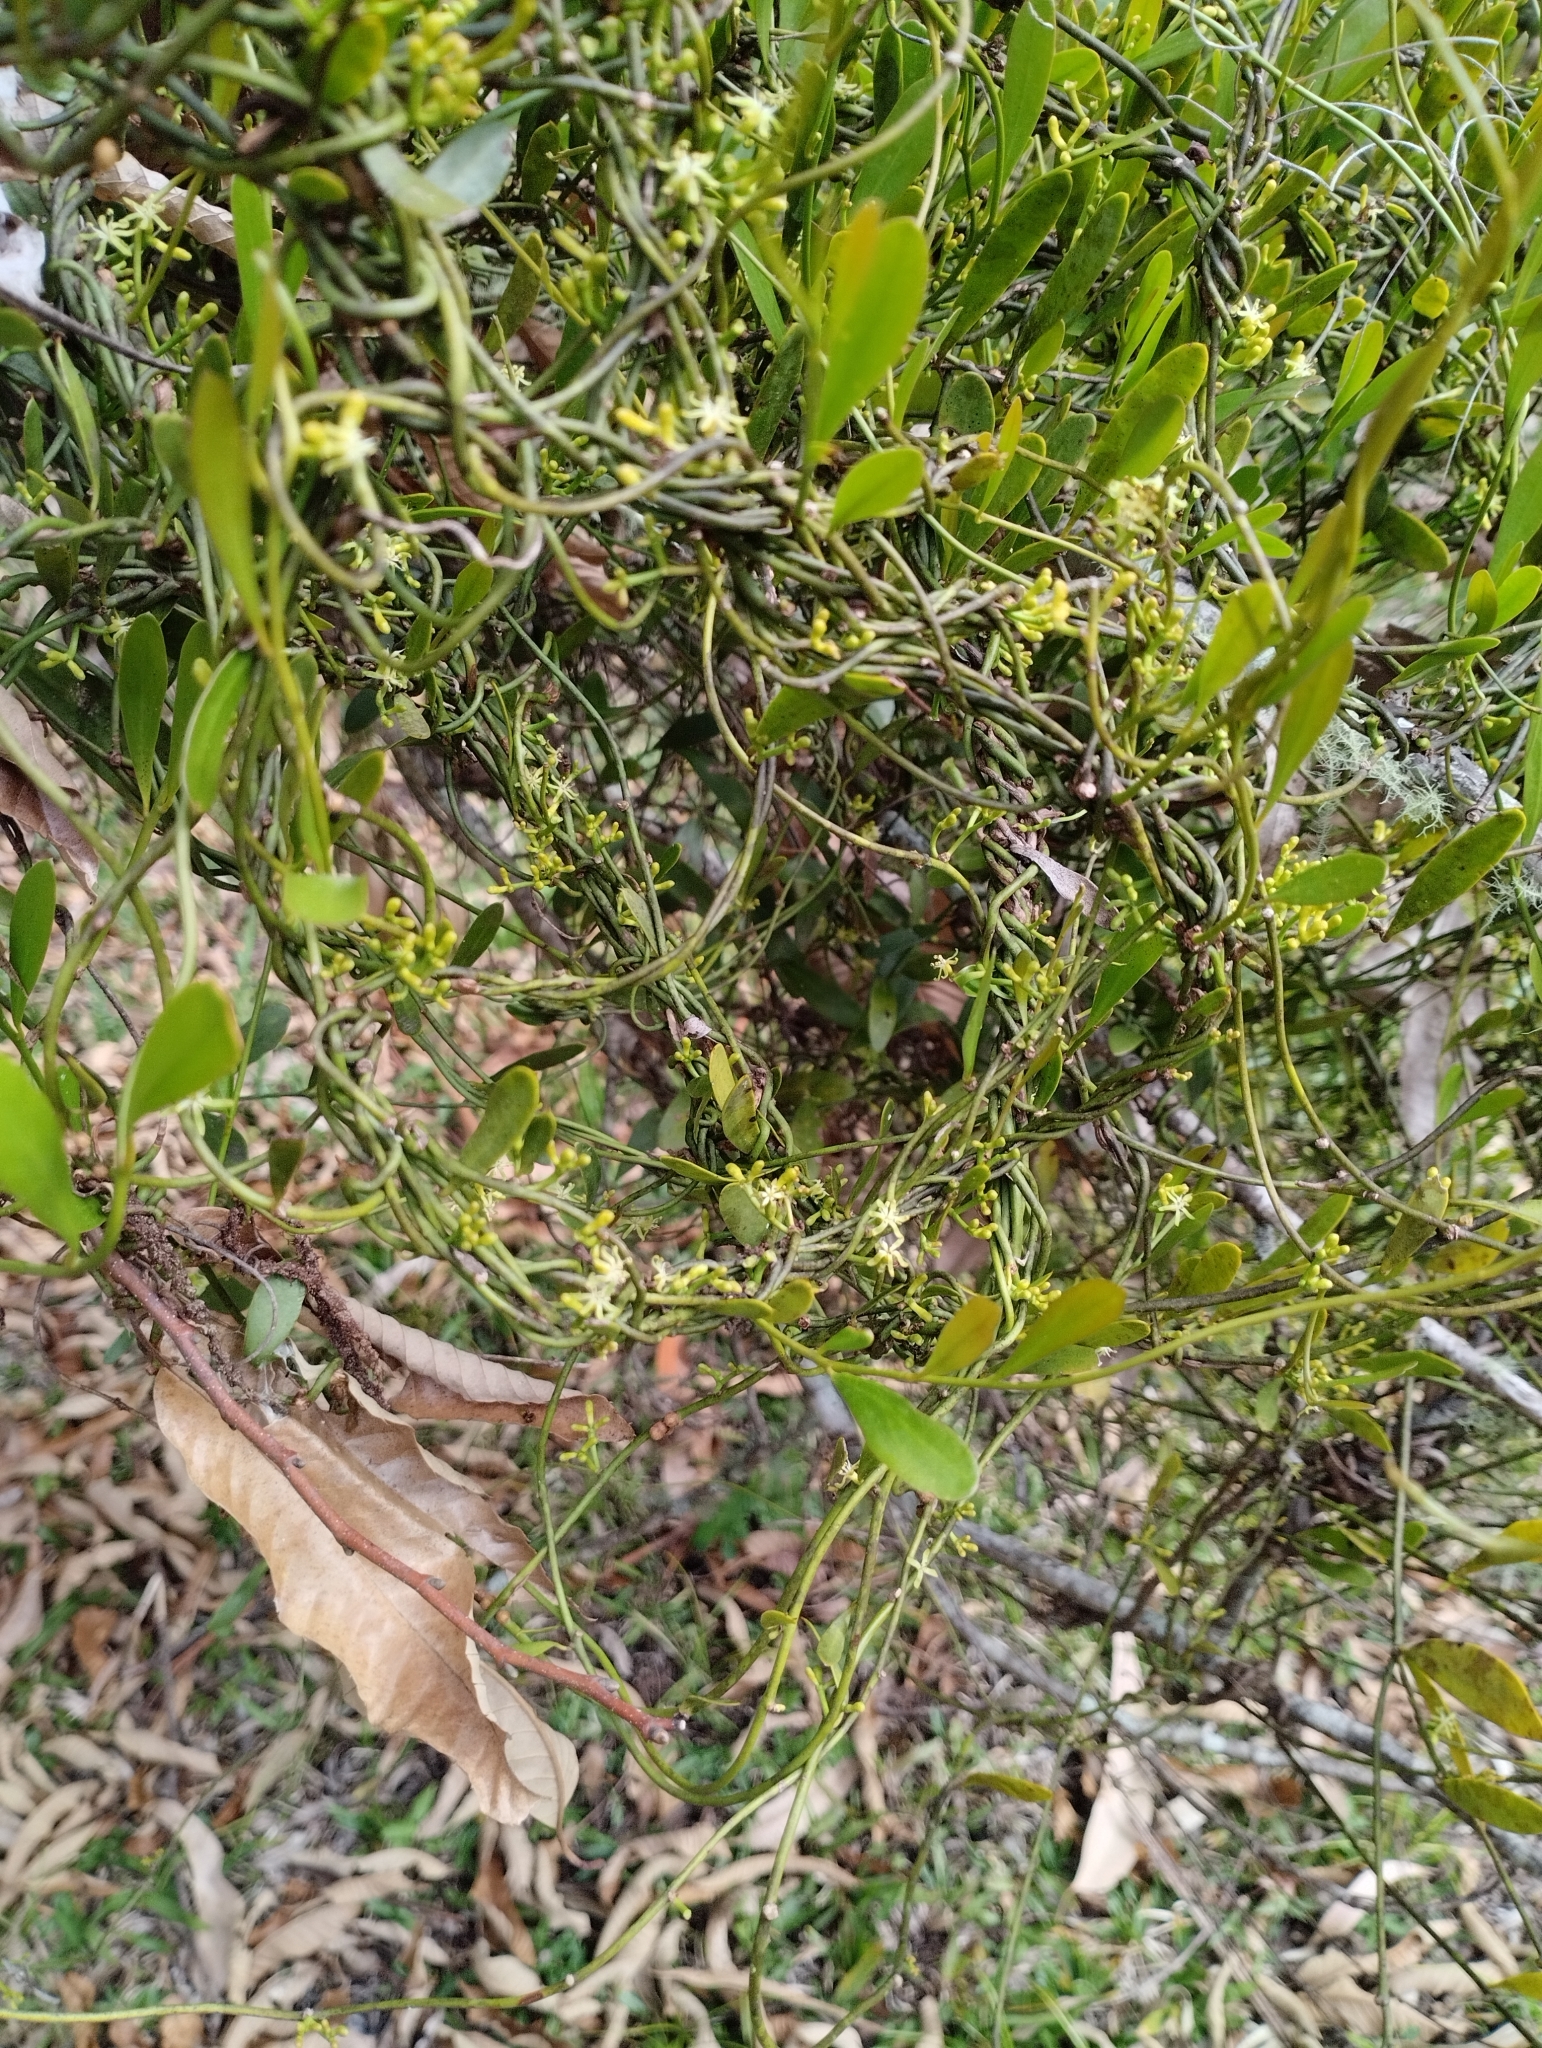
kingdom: Plantae
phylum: Tracheophyta
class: Magnoliopsida
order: Santalales
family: Loranthaceae
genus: Struthanthus
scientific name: Struthanthus uraguensis
